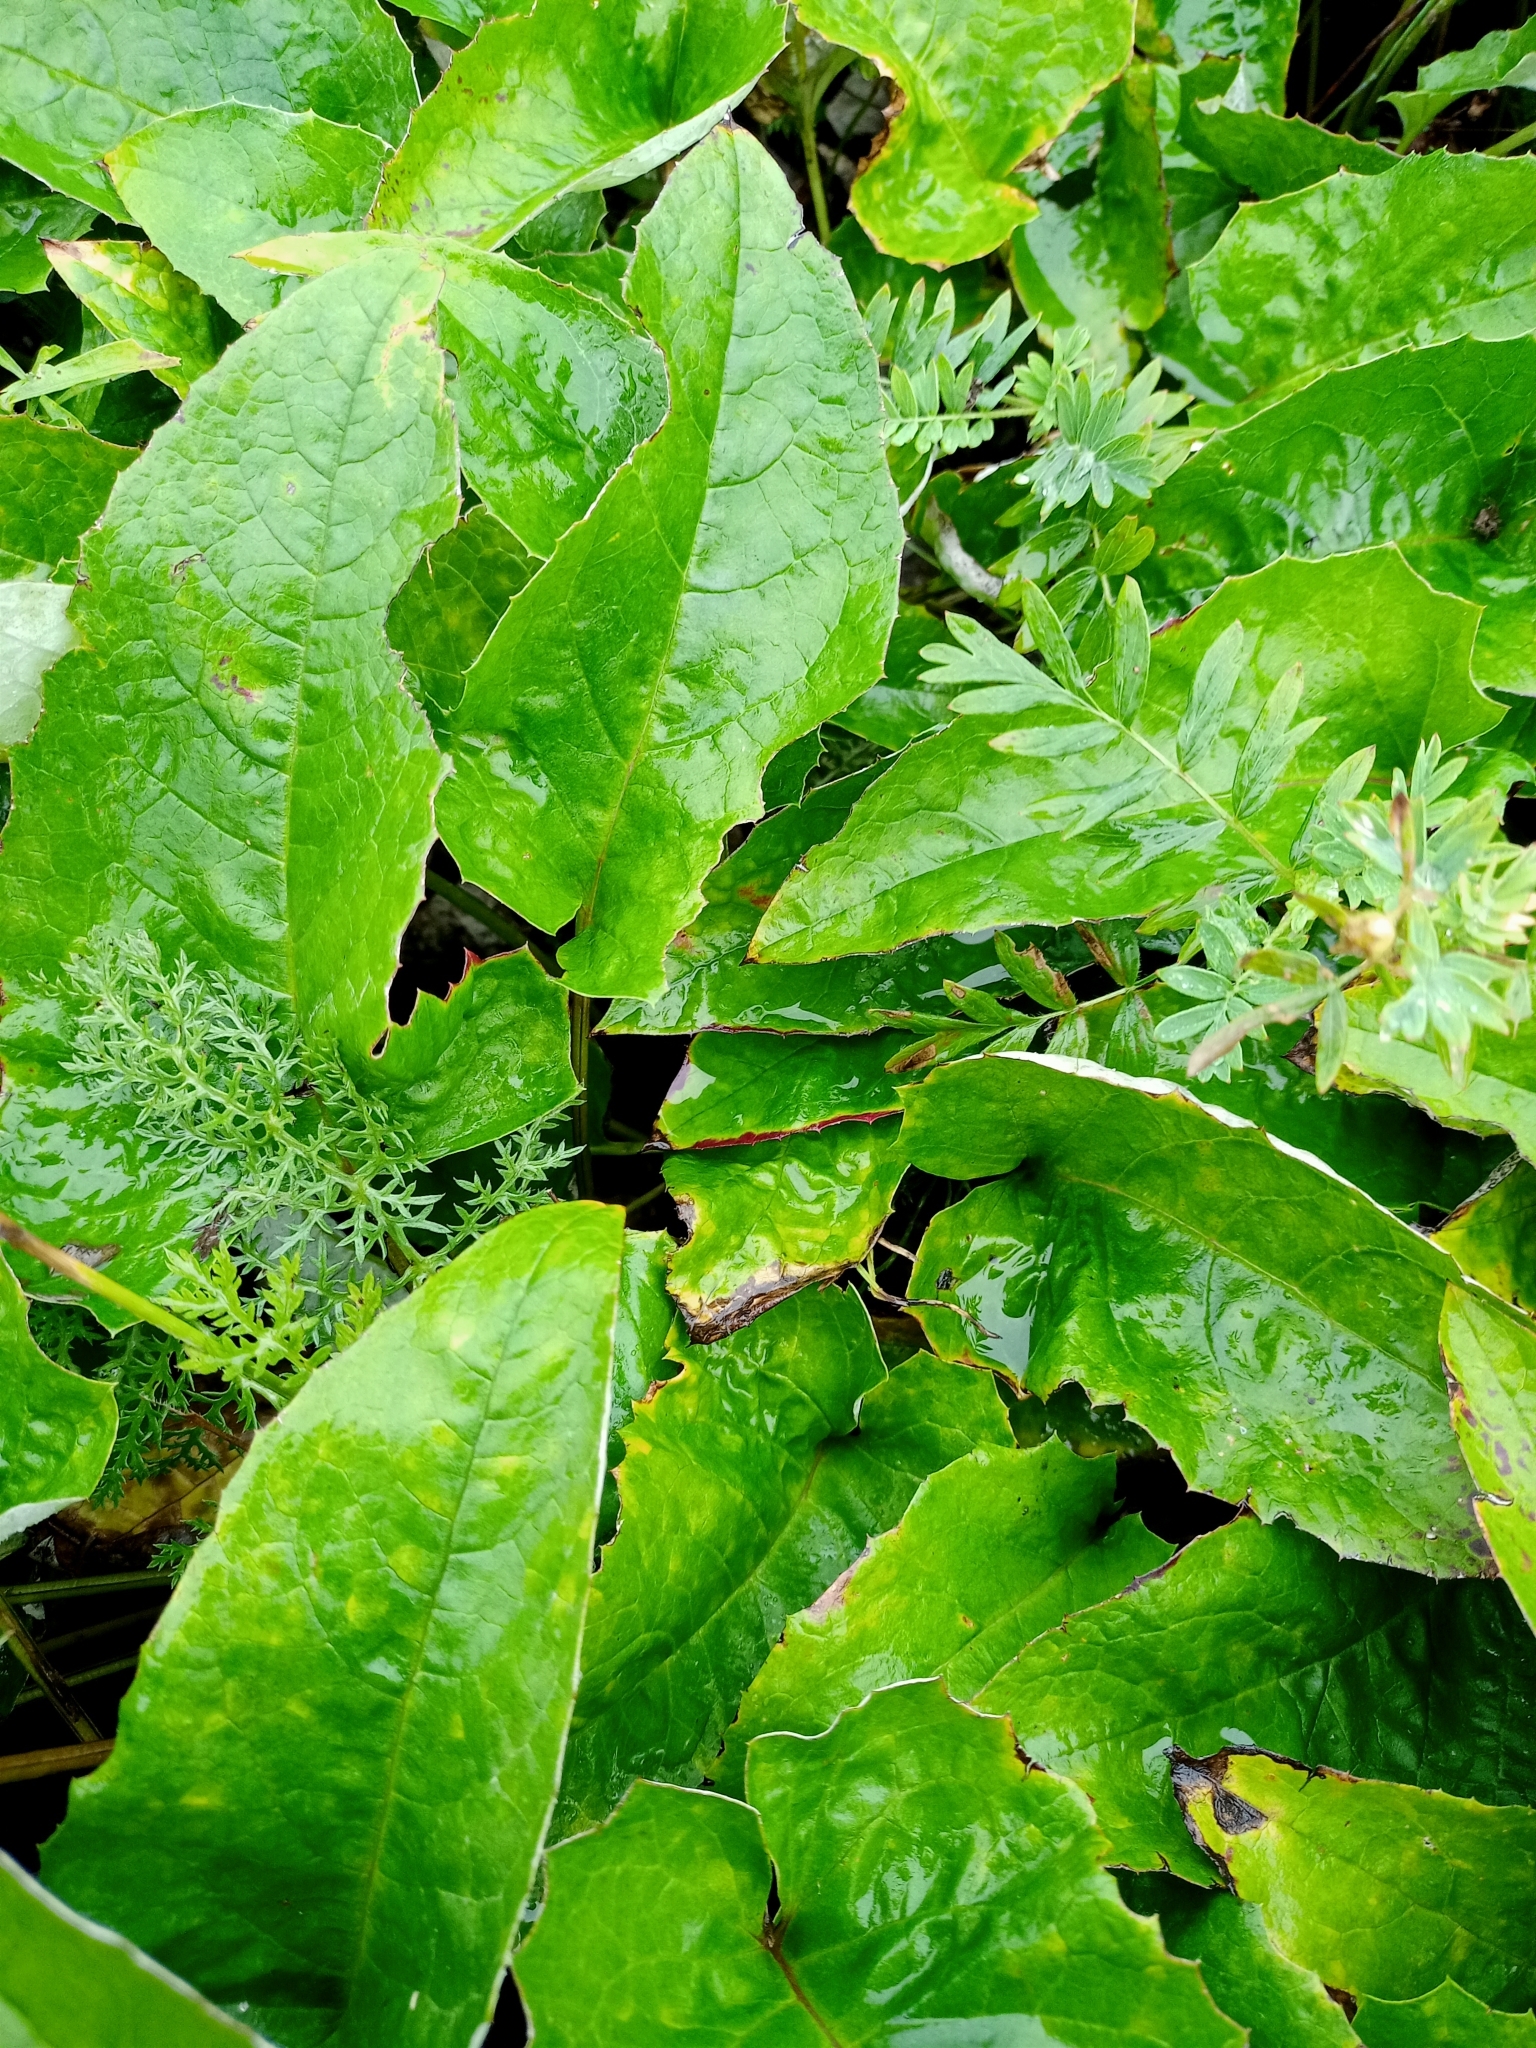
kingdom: Plantae
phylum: Tracheophyta
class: Magnoliopsida
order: Asterales
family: Asteraceae
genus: Saussurea
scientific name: Saussurea controversa
